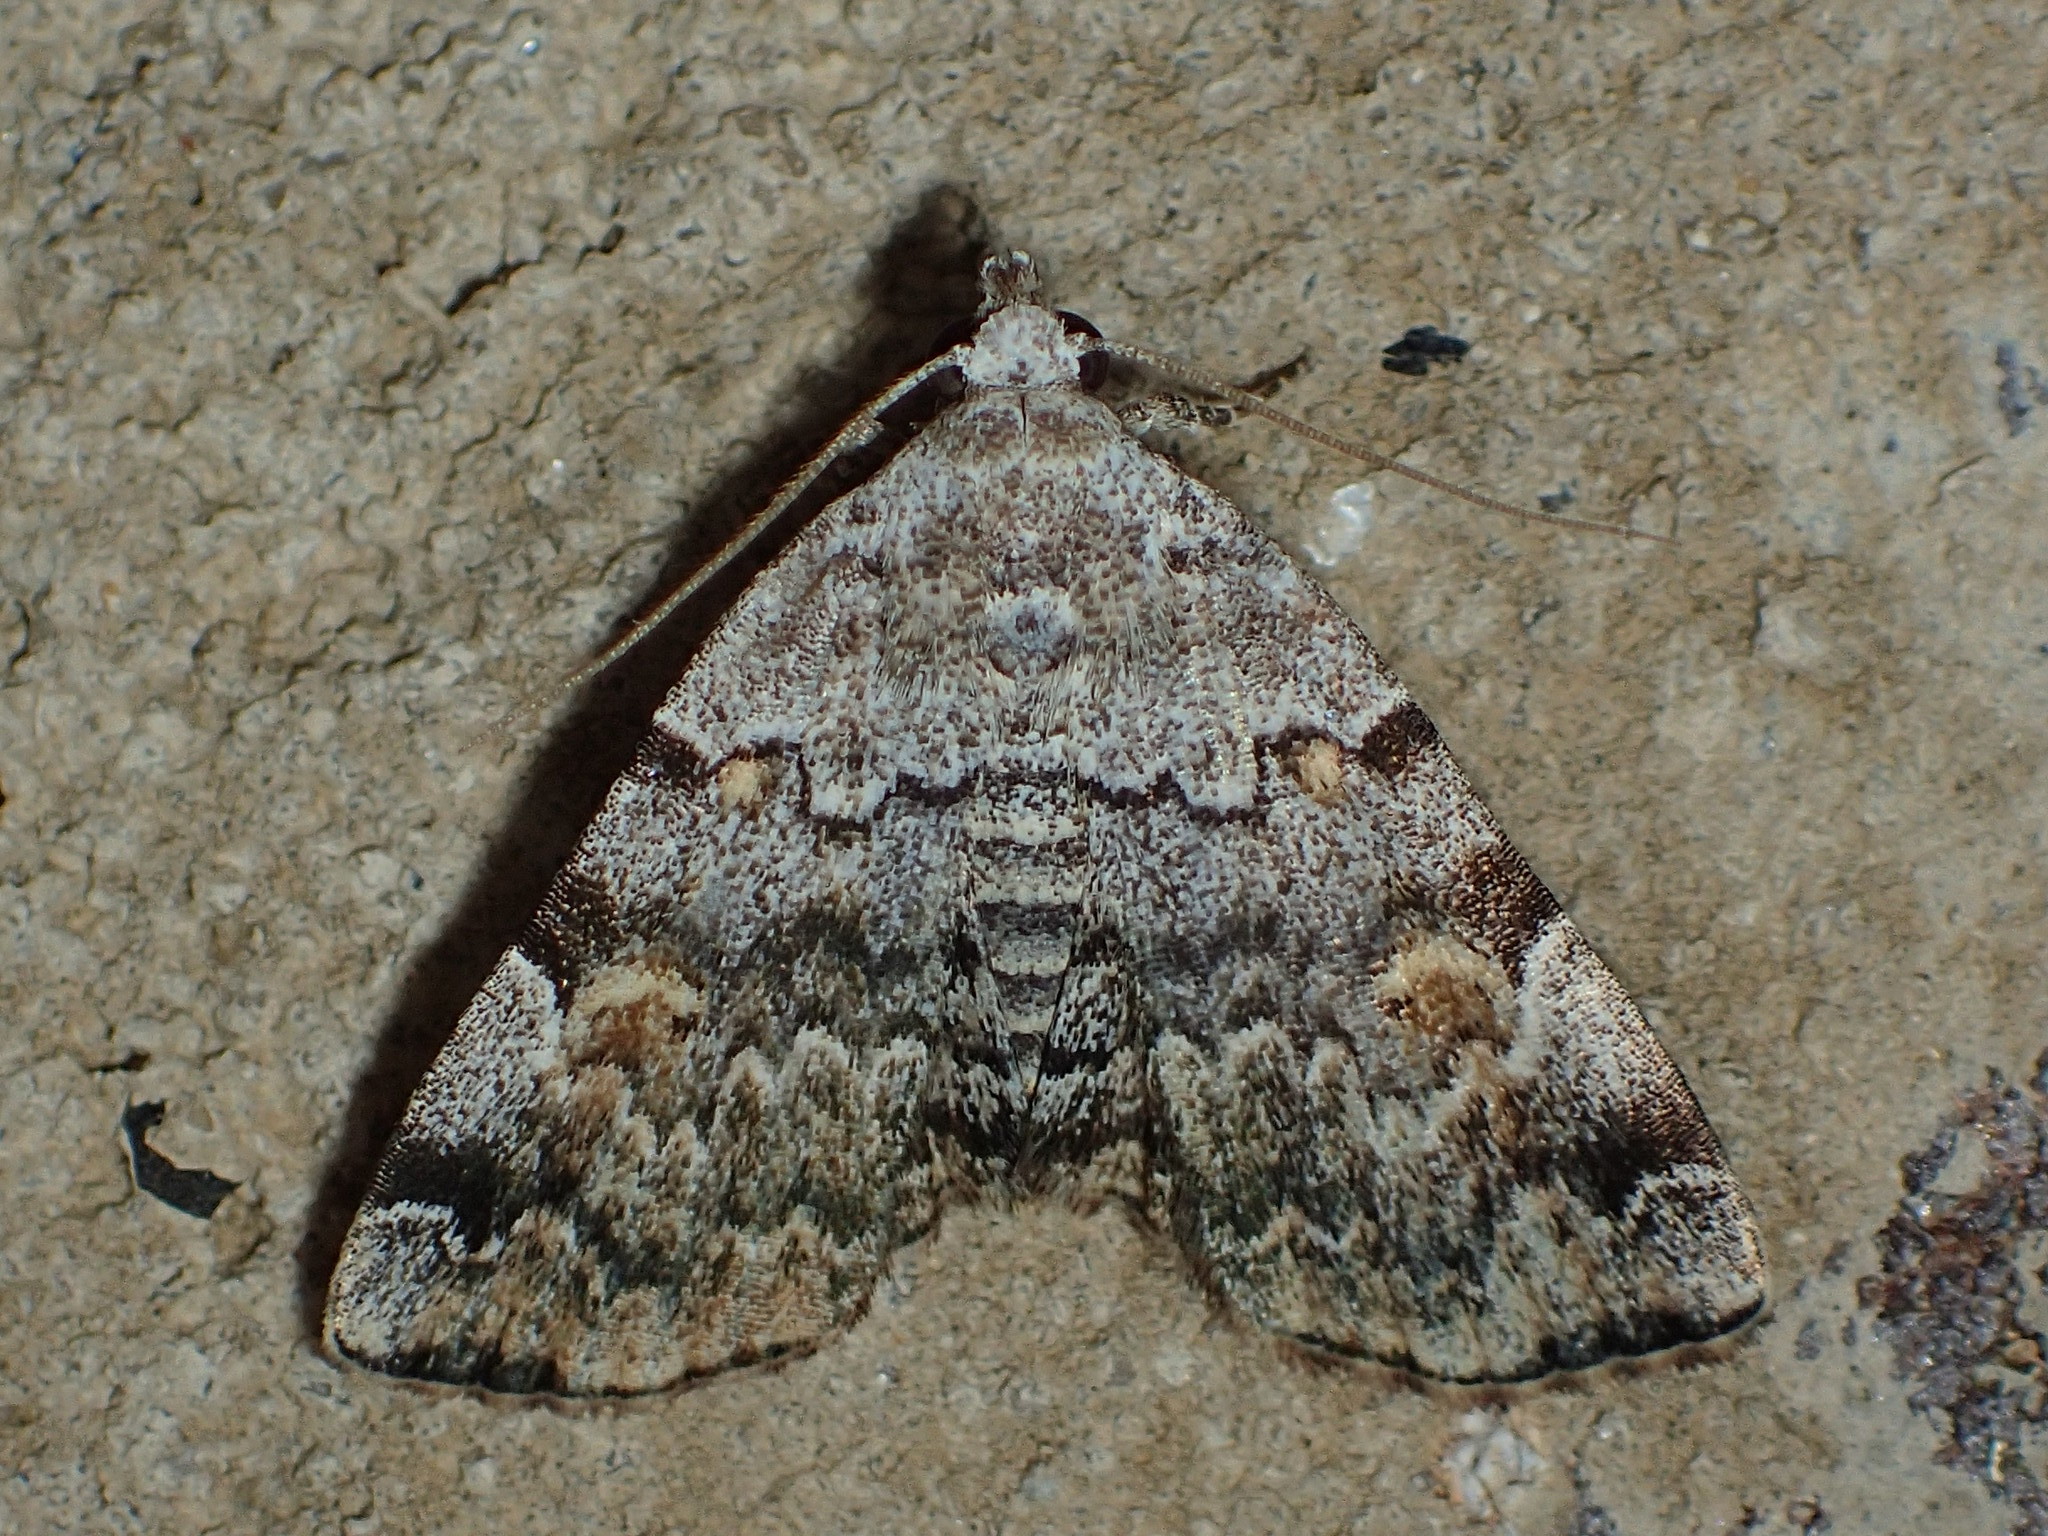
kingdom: Animalia
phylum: Arthropoda
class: Insecta
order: Lepidoptera
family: Erebidae
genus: Idia
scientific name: Idia americalis
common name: American idia moth
